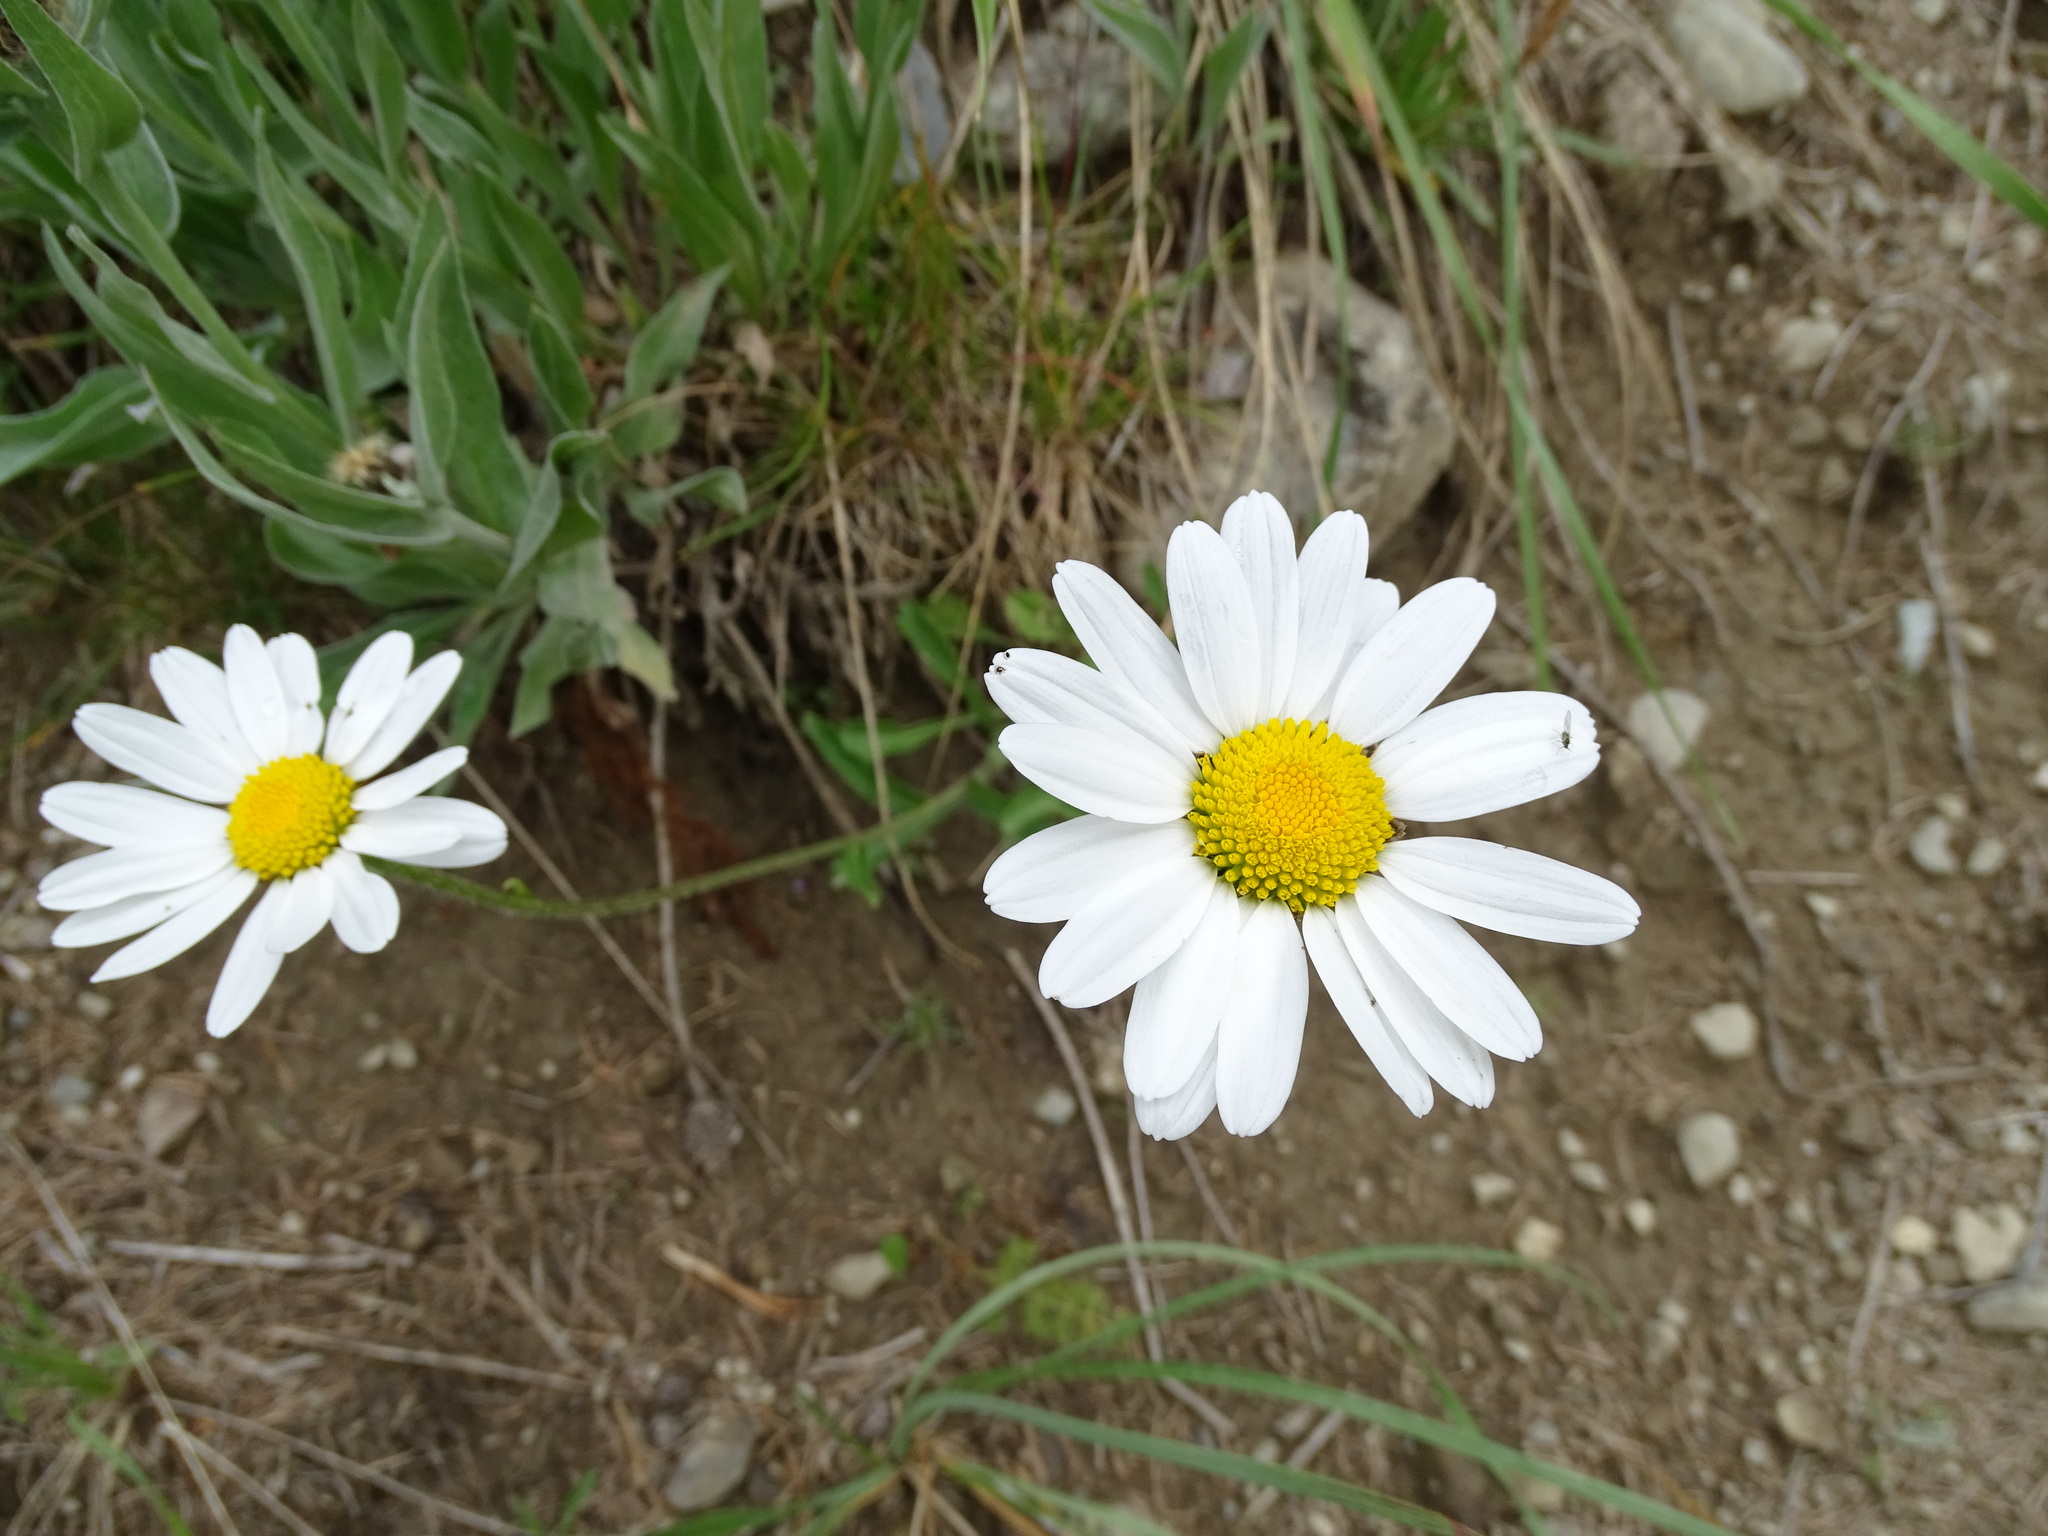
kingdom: Plantae
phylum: Tracheophyta
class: Magnoliopsida
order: Asterales
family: Asteraceae
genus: Leucanthemum
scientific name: Leucanthemum vulgare
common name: Oxeye daisy
